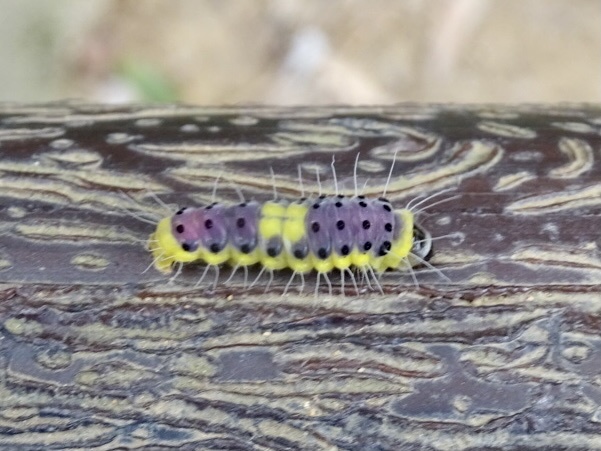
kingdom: Animalia
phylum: Arthropoda
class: Insecta
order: Lepidoptera
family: Zygaenidae
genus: Retina
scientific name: Retina rubrivitta
